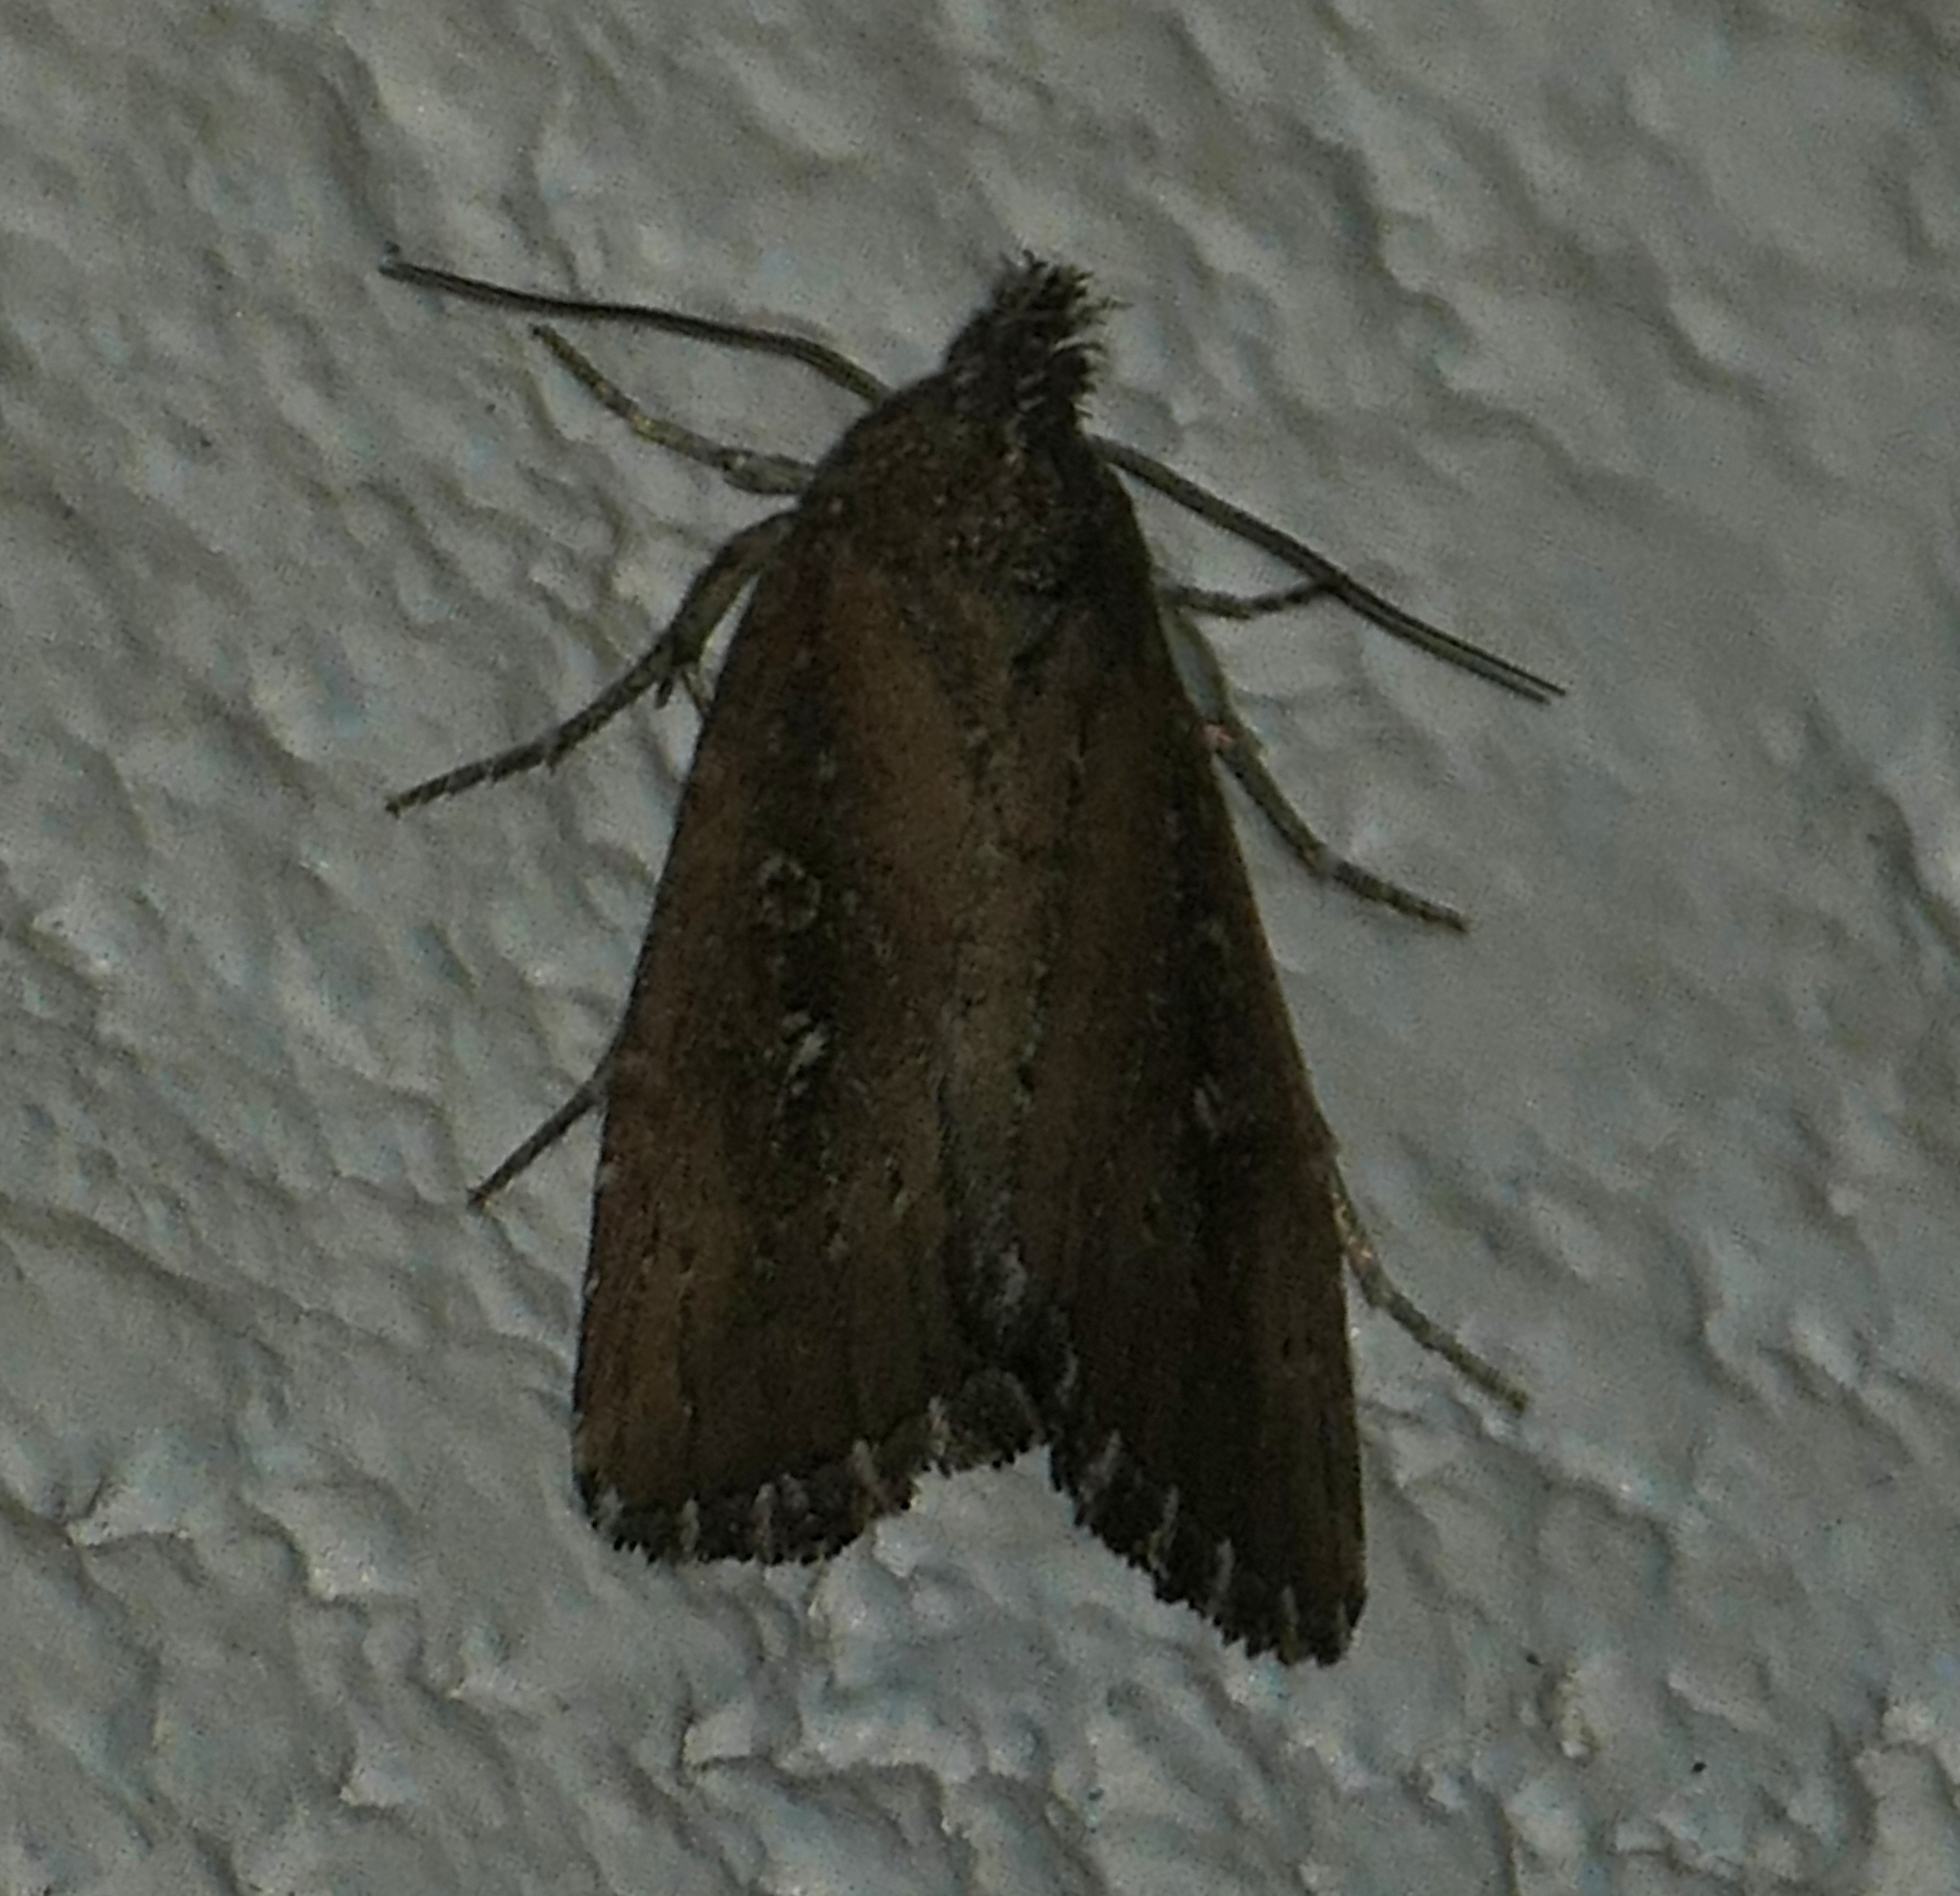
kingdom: Animalia
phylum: Arthropoda
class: Insecta
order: Lepidoptera
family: Noctuidae
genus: Condica
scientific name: Condica videns
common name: White-dotted groundling
